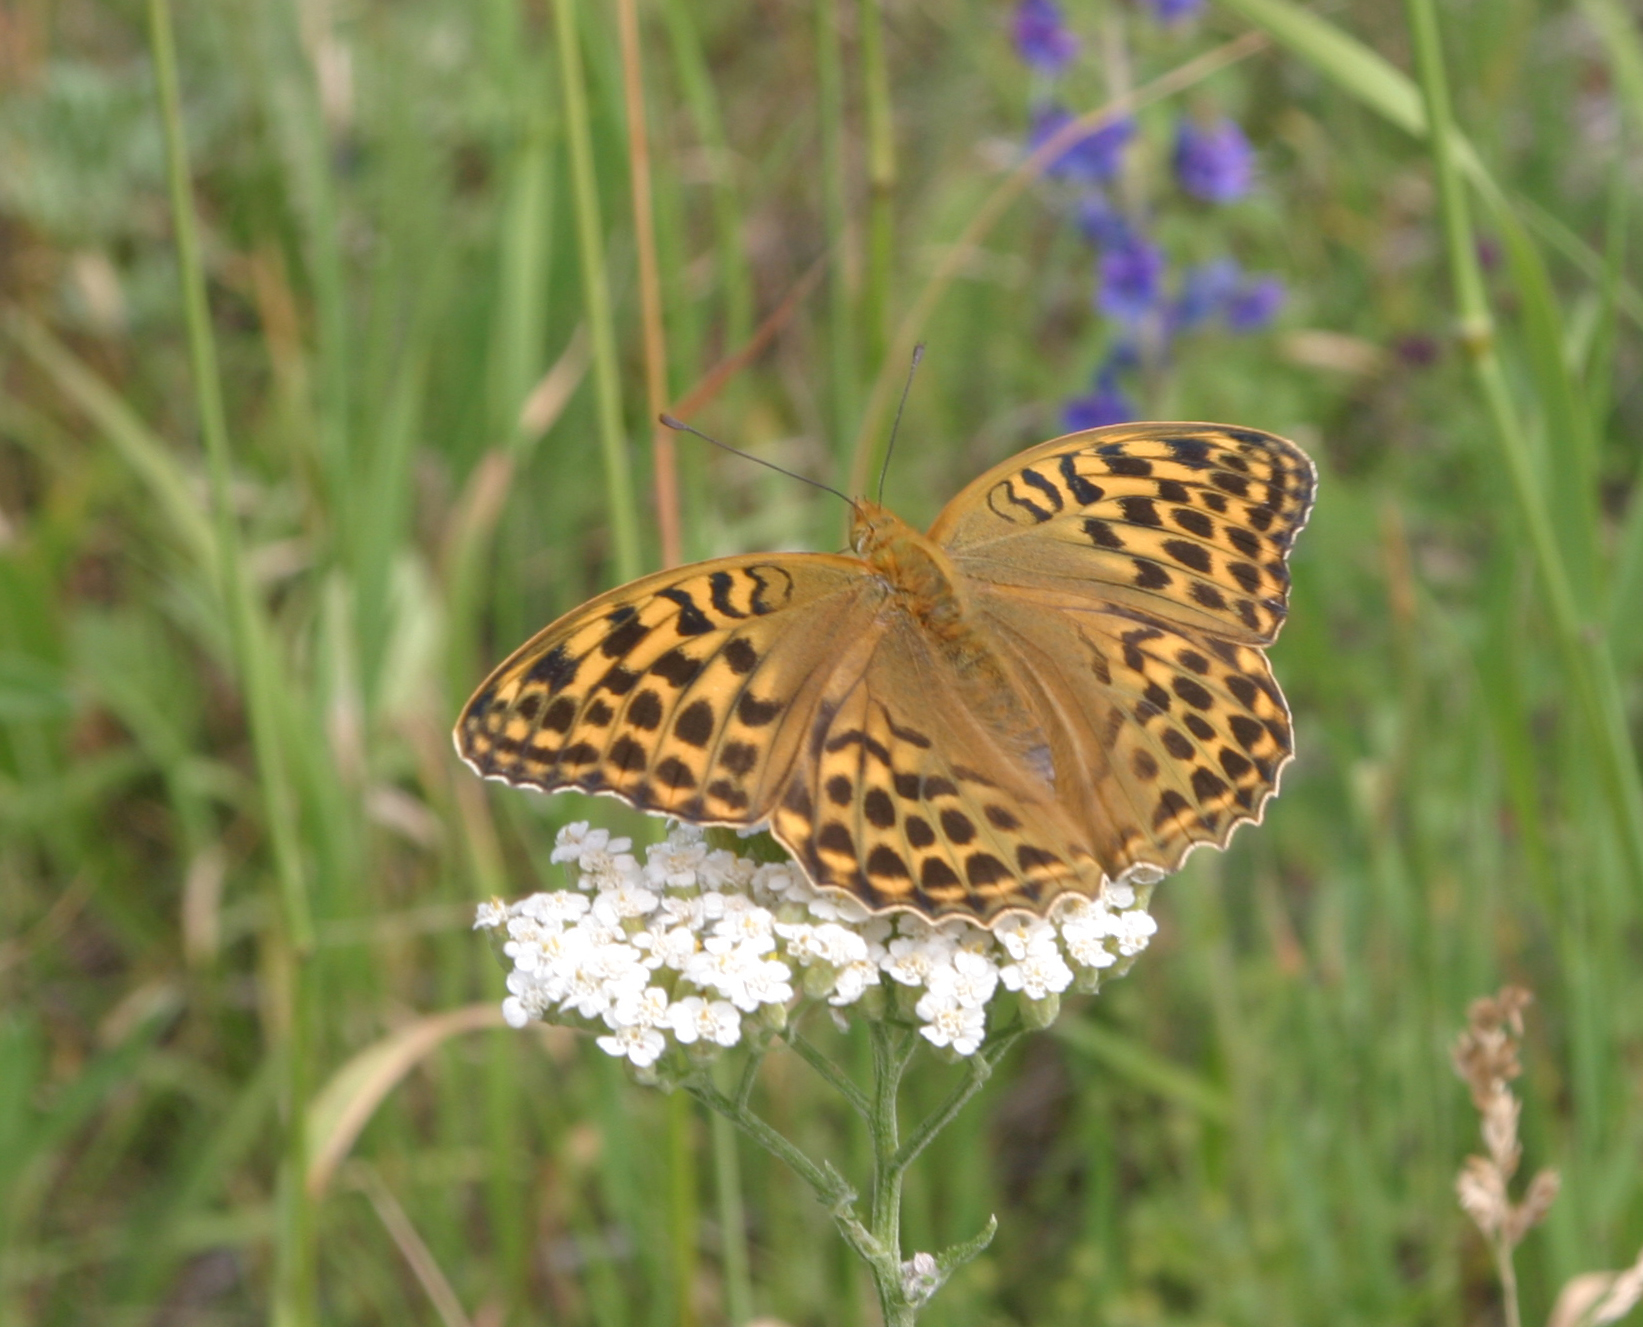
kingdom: Animalia
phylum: Arthropoda
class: Insecta
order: Lepidoptera
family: Nymphalidae
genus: Argynnis
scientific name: Argynnis paphia
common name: Silver-washed fritillary
